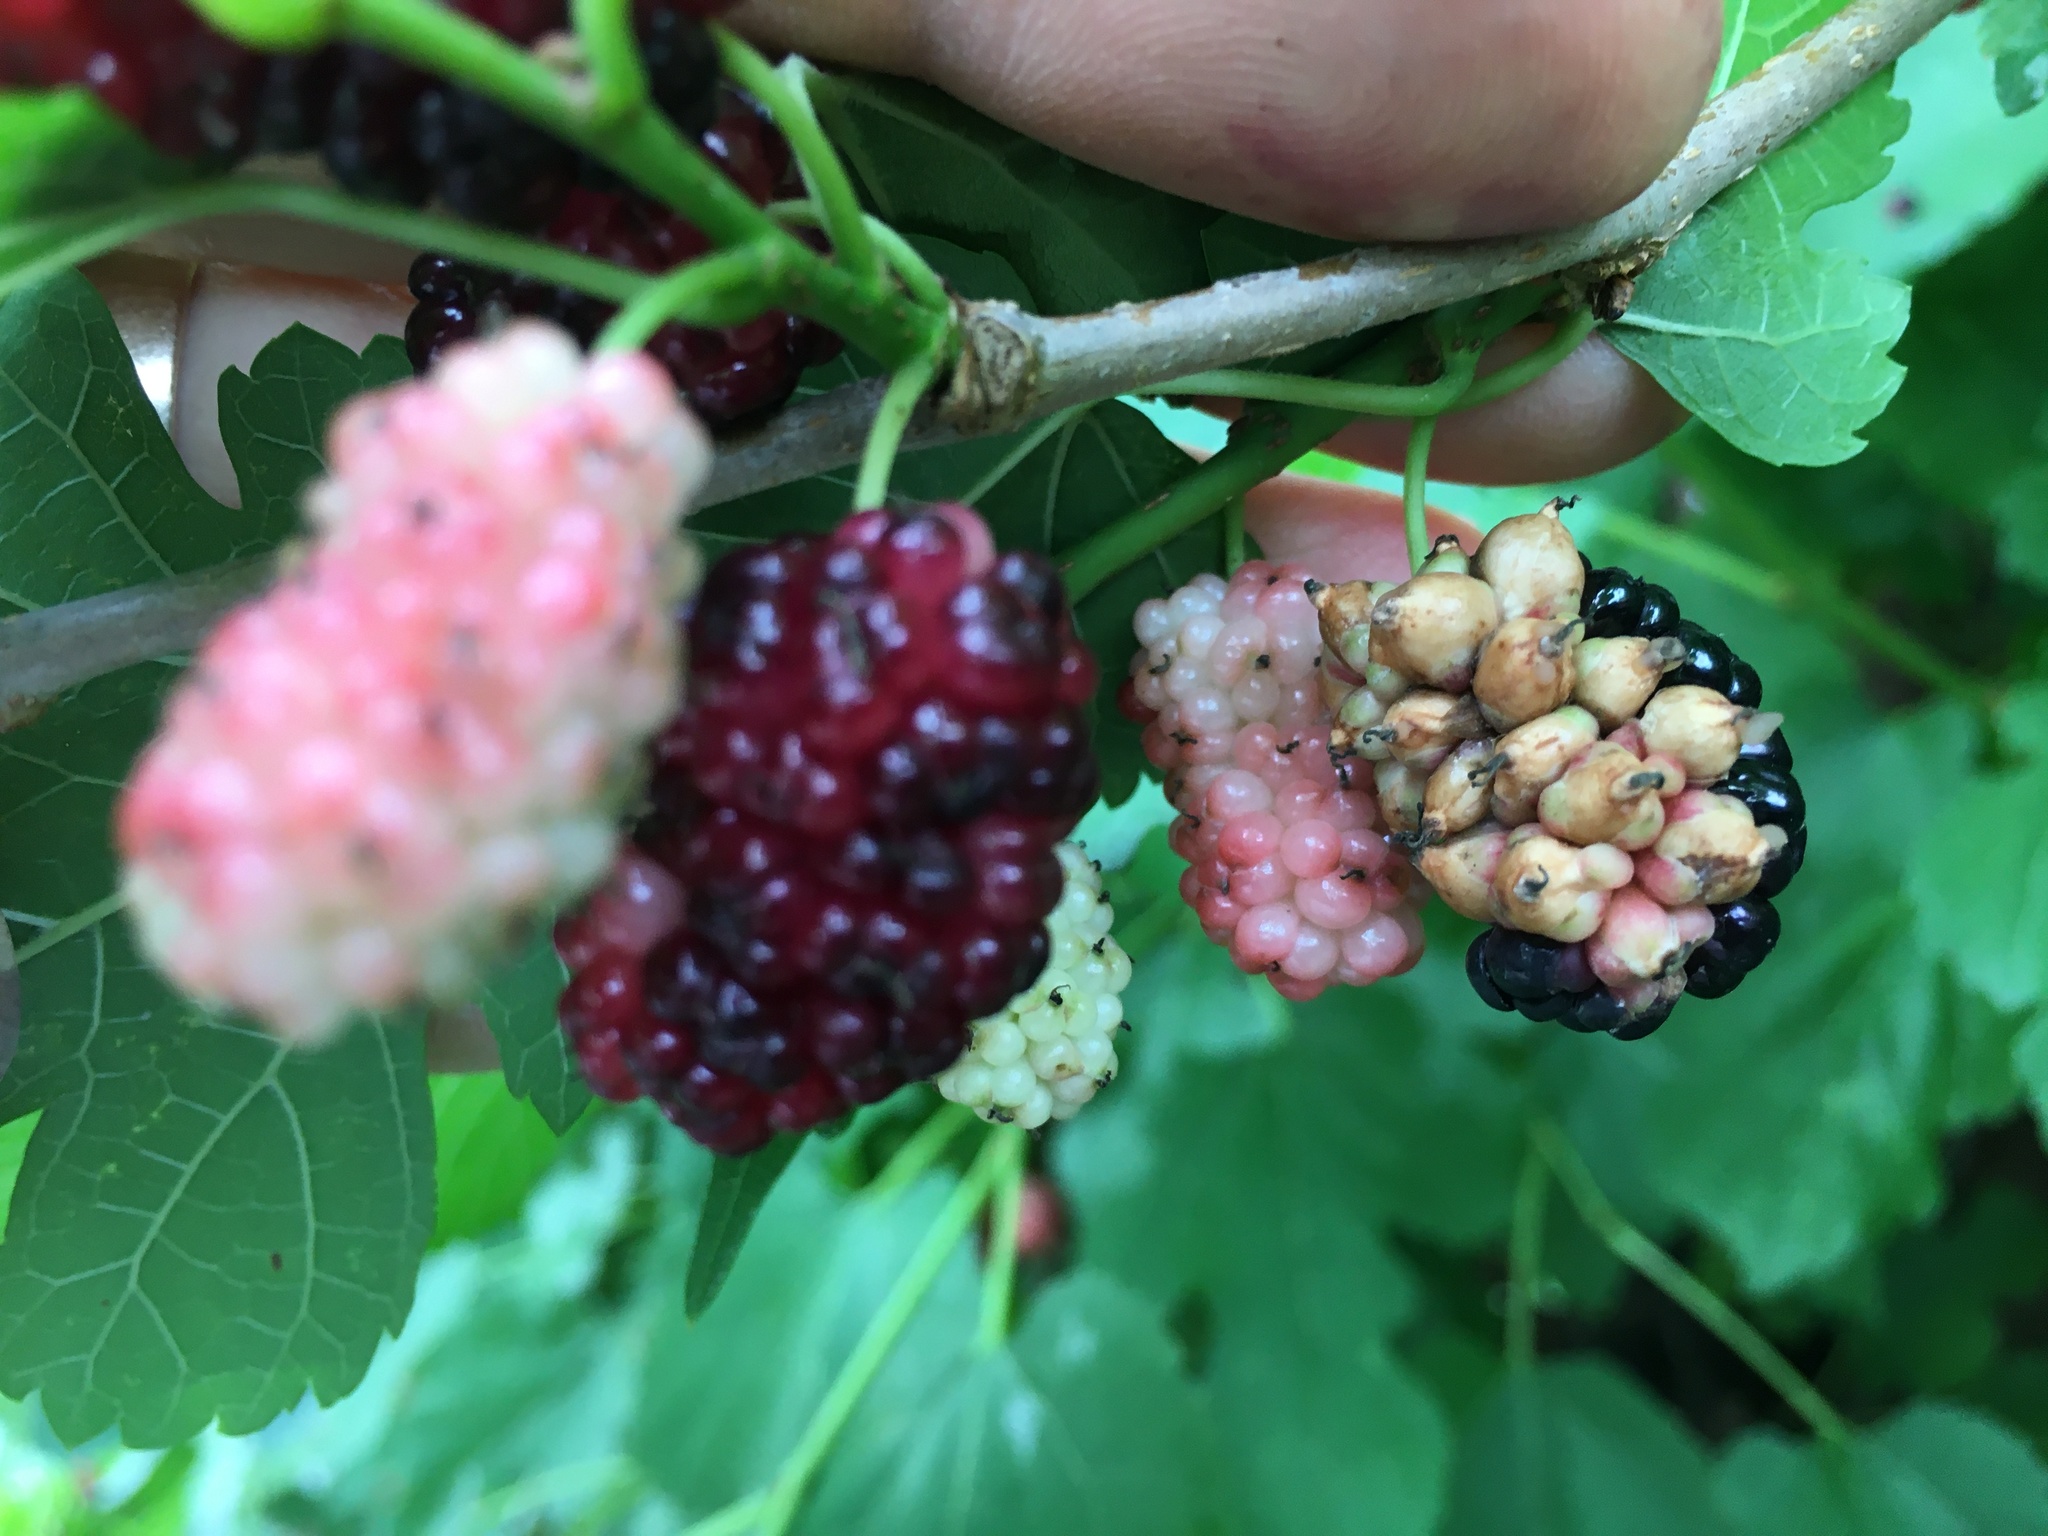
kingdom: Fungi
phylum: Ascomycota
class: Leotiomycetes
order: Helotiales
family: Sclerotiniaceae
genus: Ciboria
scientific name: Ciboria carunculoides
